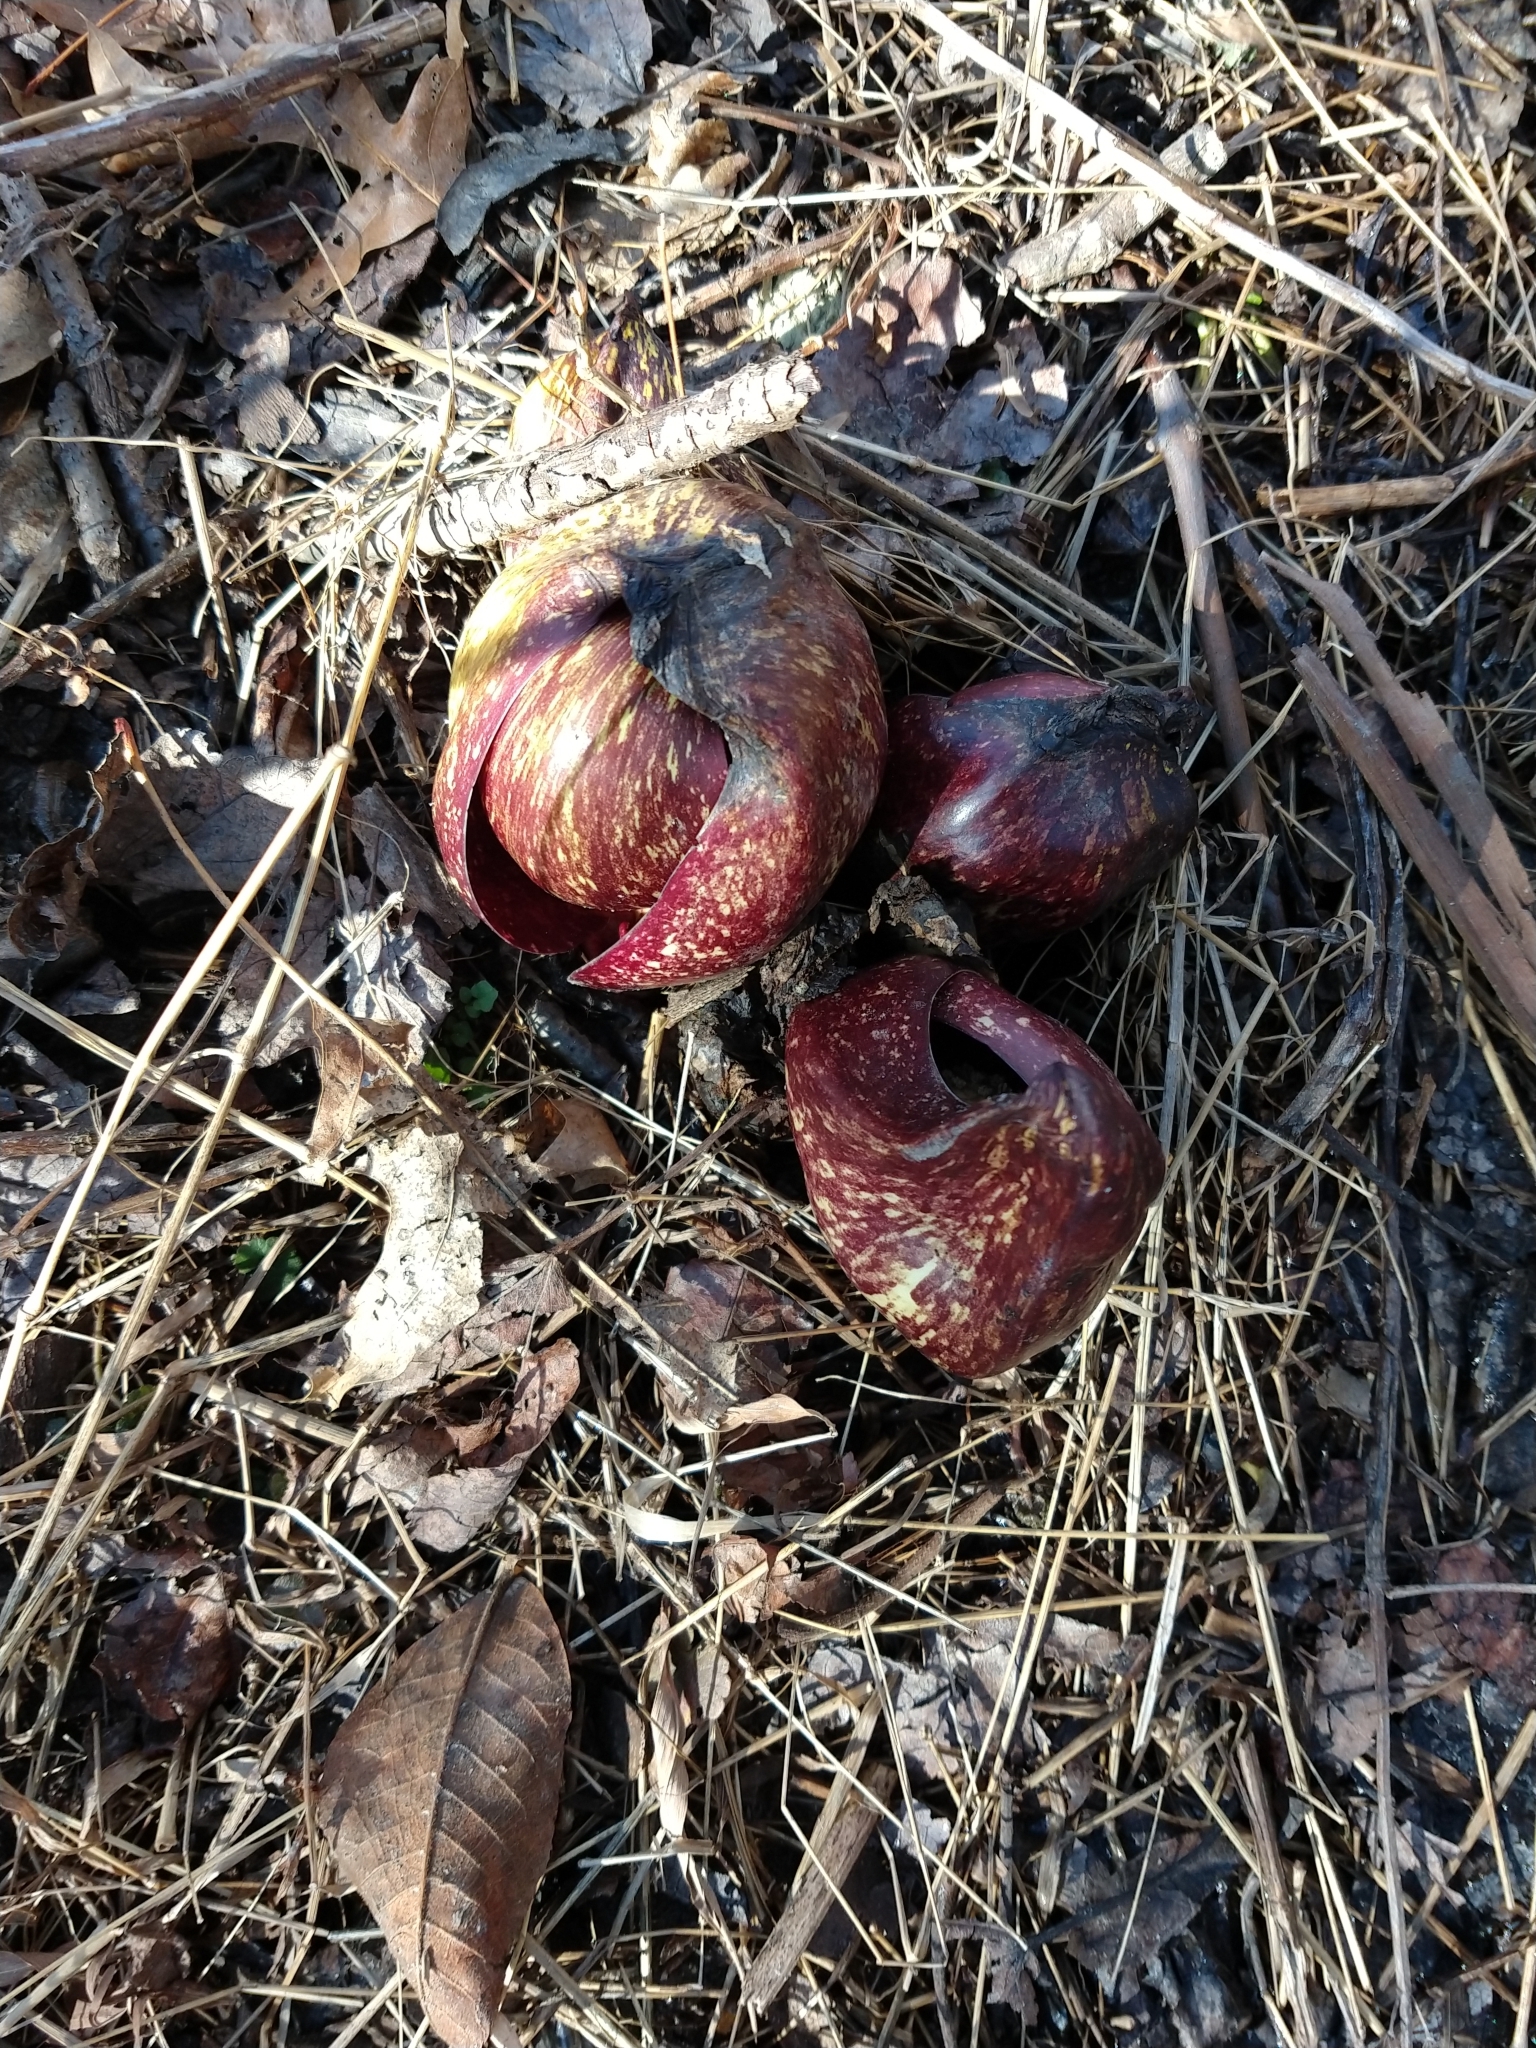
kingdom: Plantae
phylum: Tracheophyta
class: Liliopsida
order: Alismatales
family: Araceae
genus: Symplocarpus
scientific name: Symplocarpus foetidus
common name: Eastern skunk cabbage
